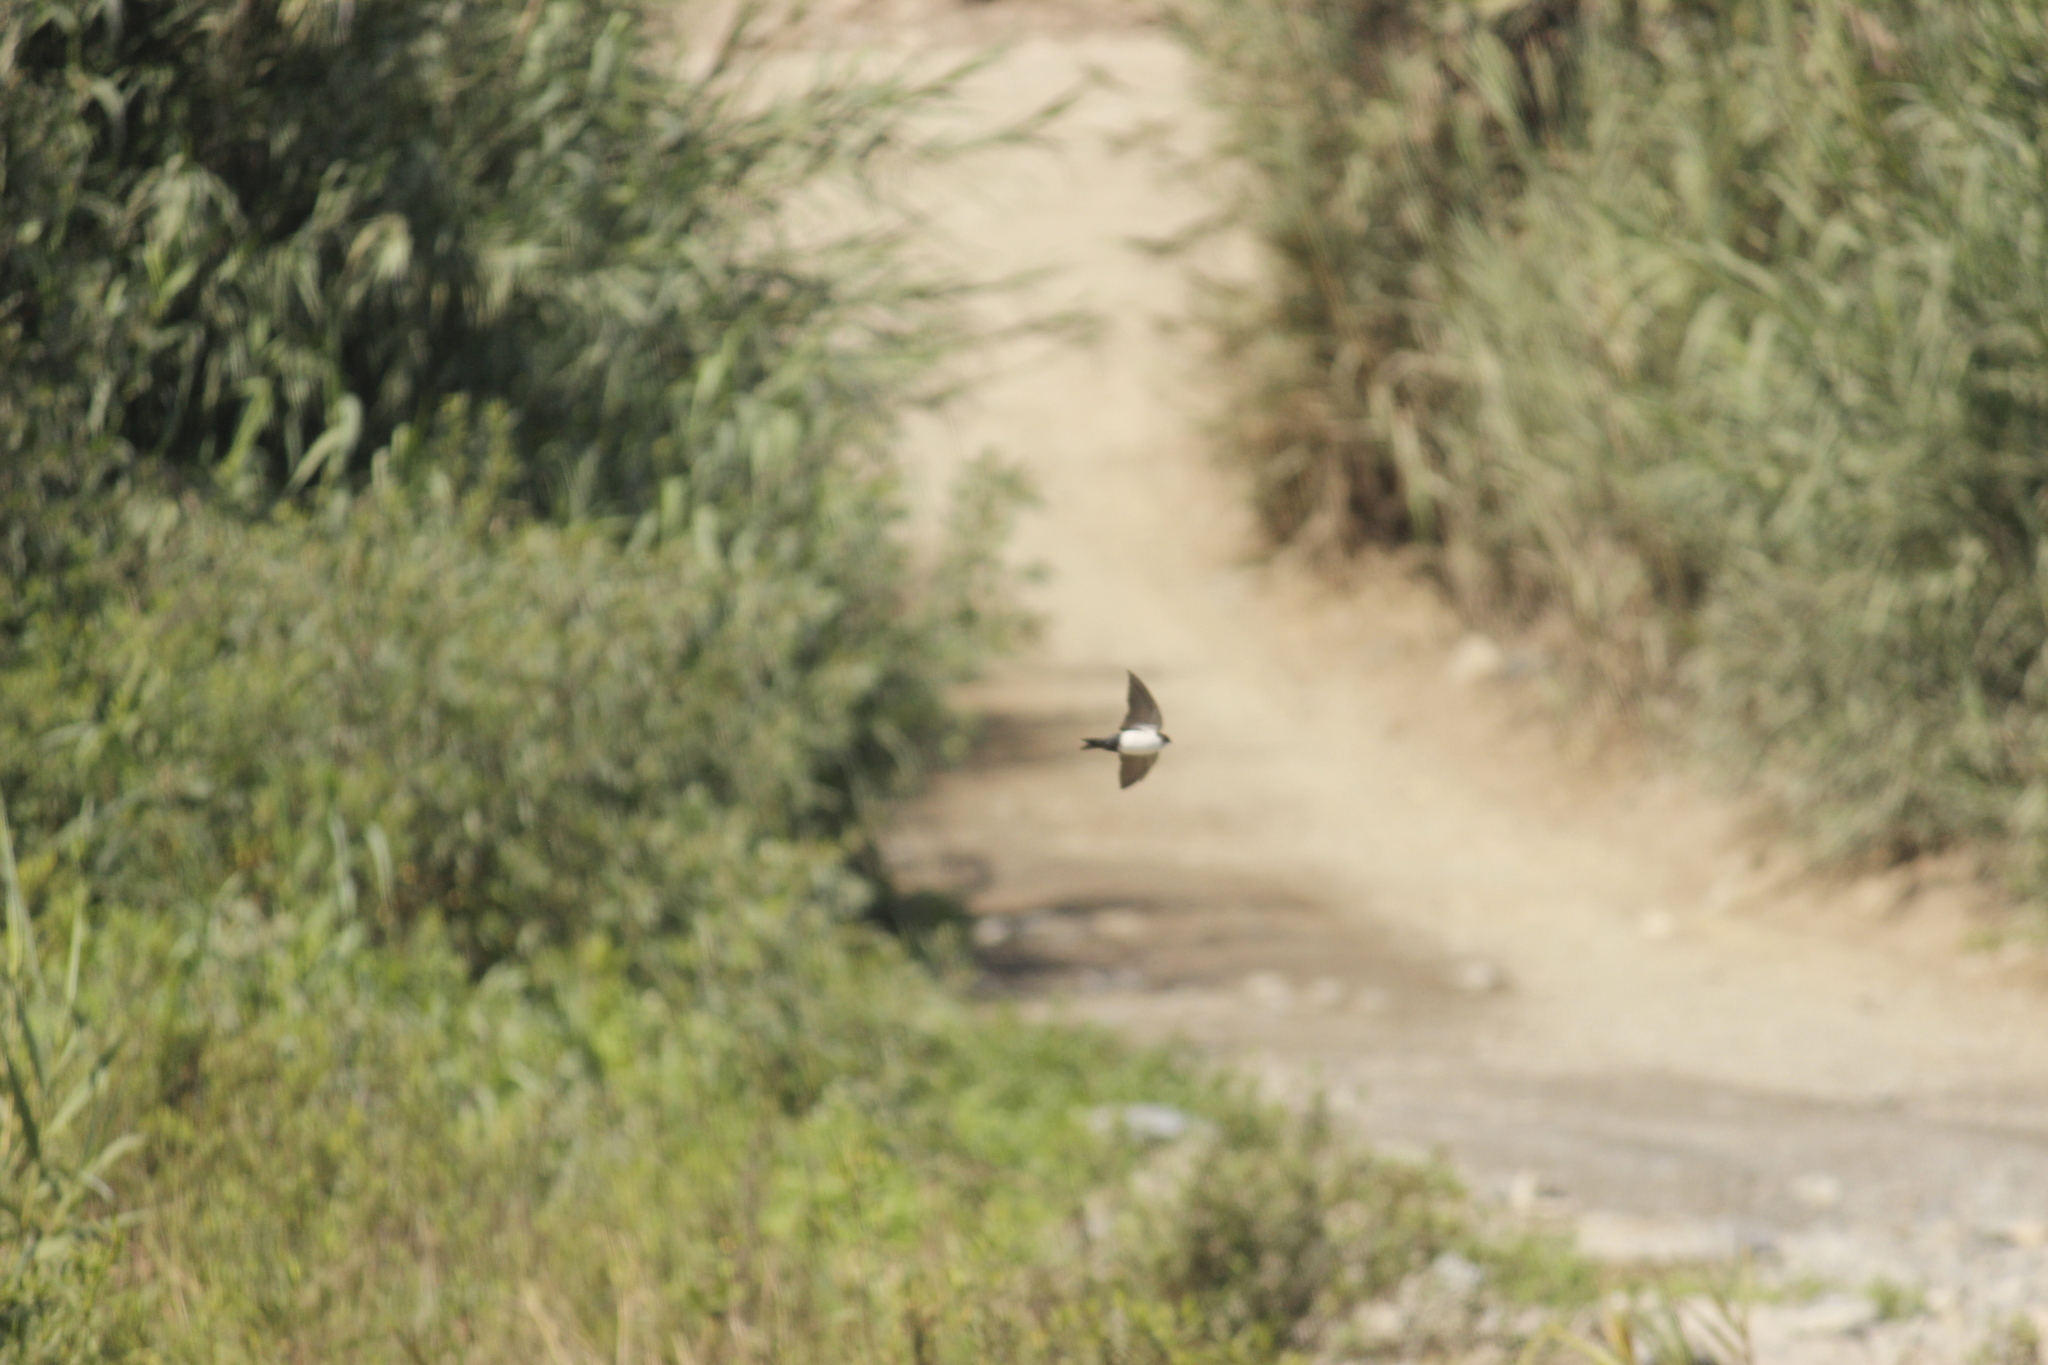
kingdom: Animalia
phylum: Chordata
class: Aves
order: Passeriformes
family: Hirundinidae
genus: Notiochelidon
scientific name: Notiochelidon cyanoleuca
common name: Blue-and-white swallow
